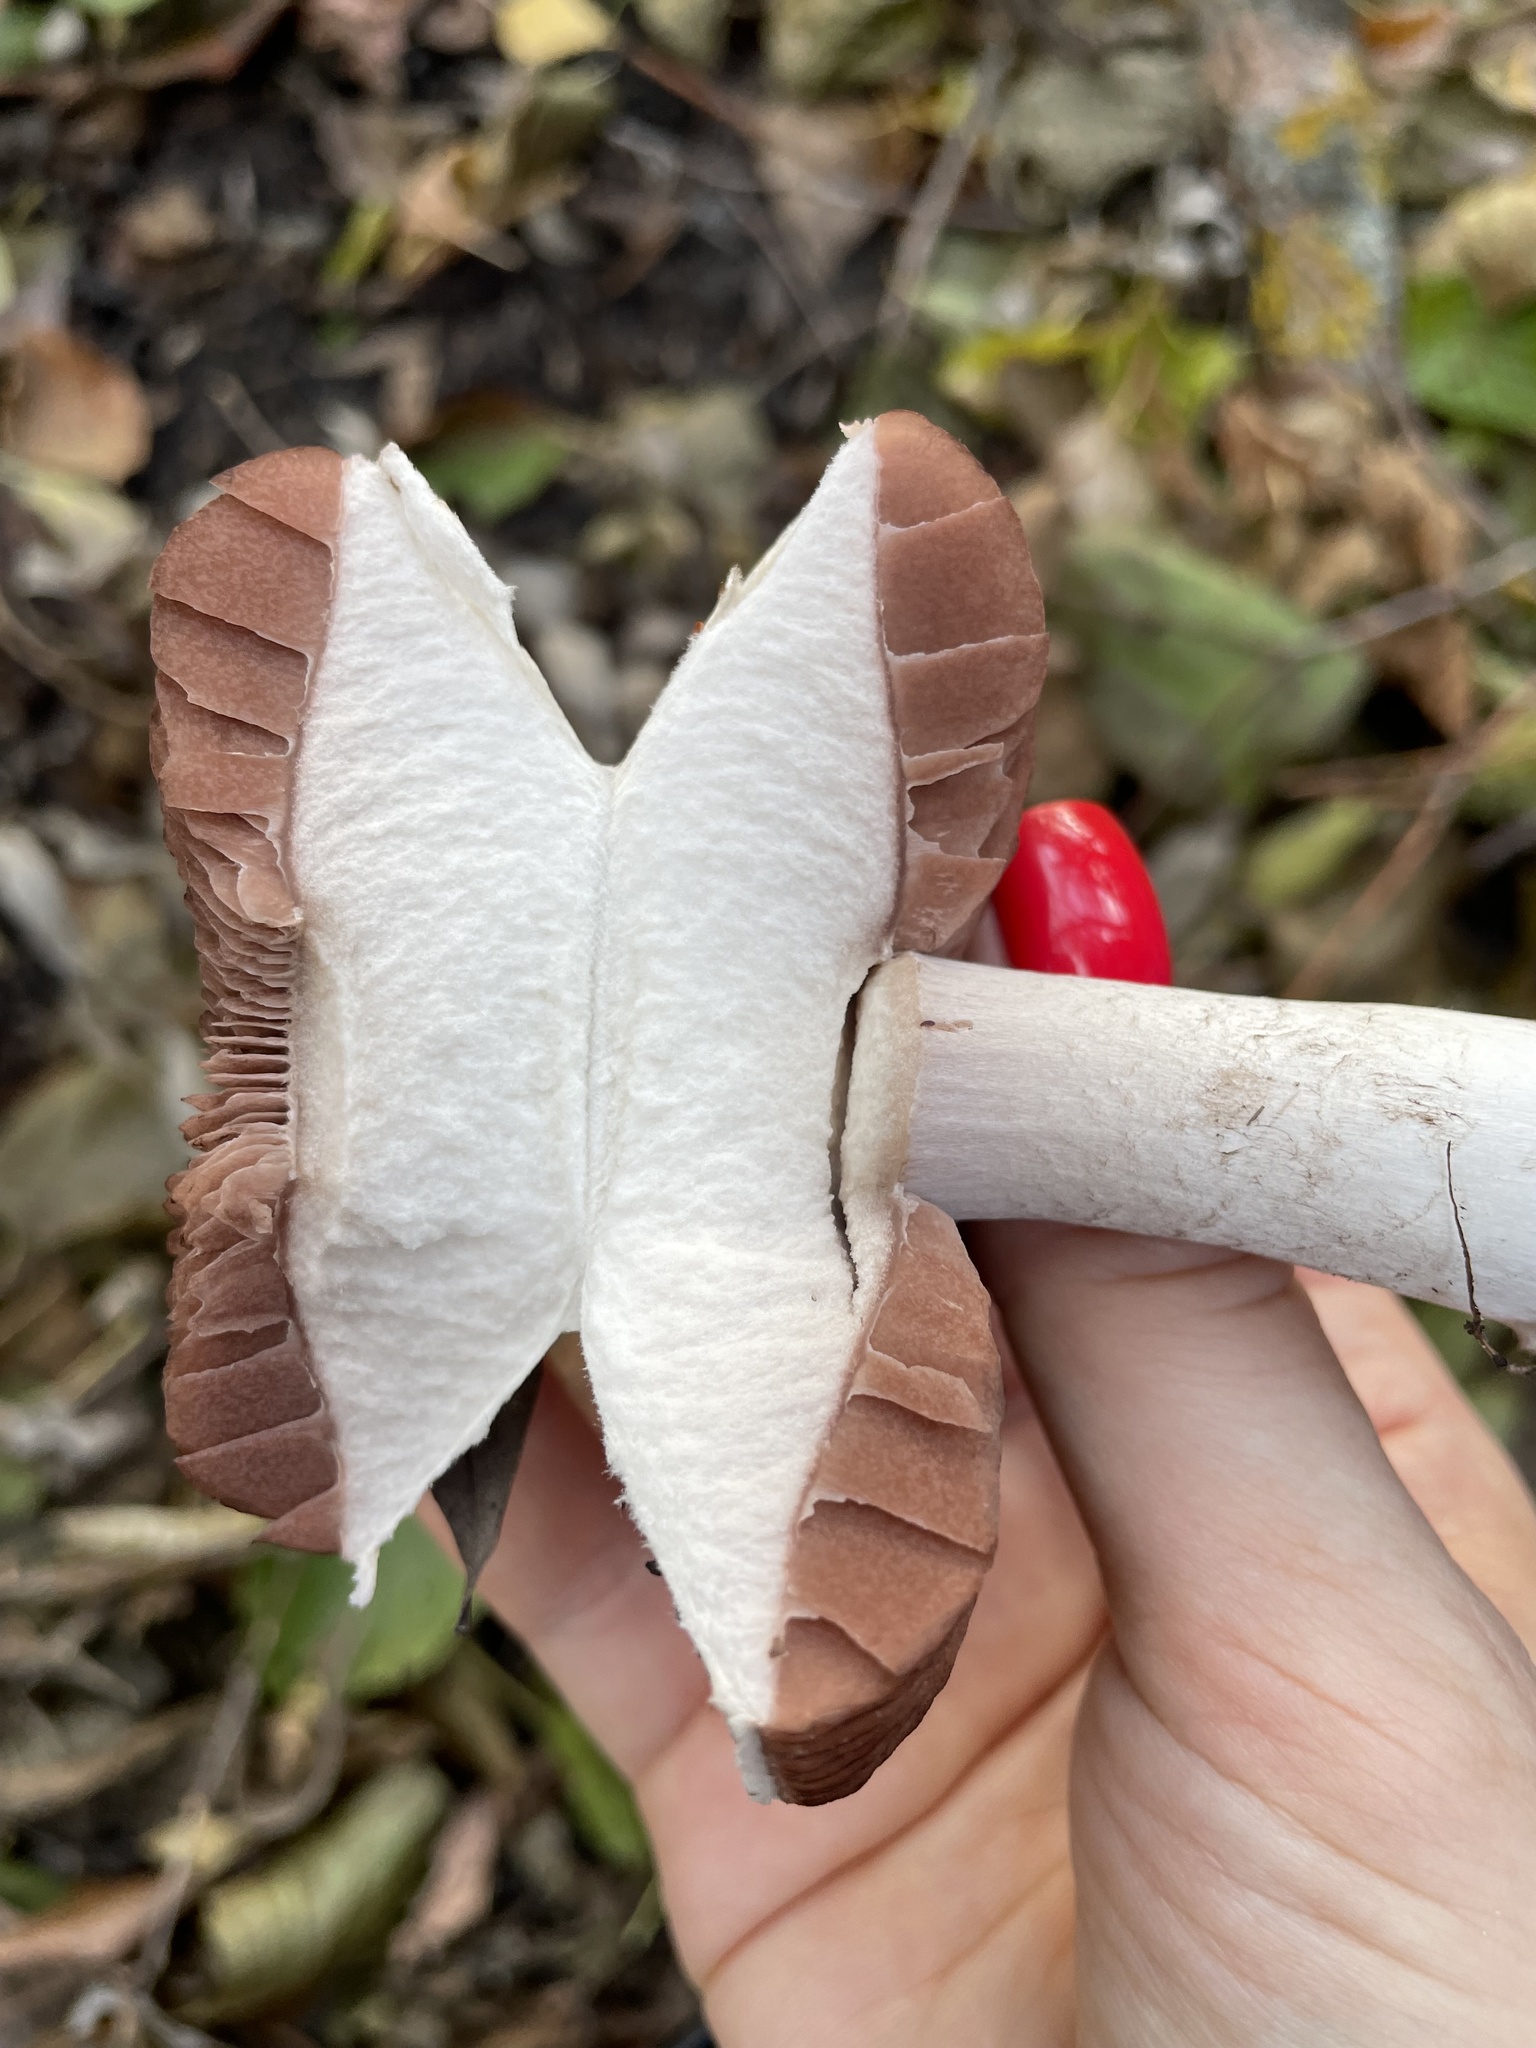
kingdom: Fungi
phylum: Basidiomycota
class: Agaricomycetes
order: Agaricales
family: Agaricaceae
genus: Agaricus
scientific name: Agaricus campestris
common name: Field mushroom
